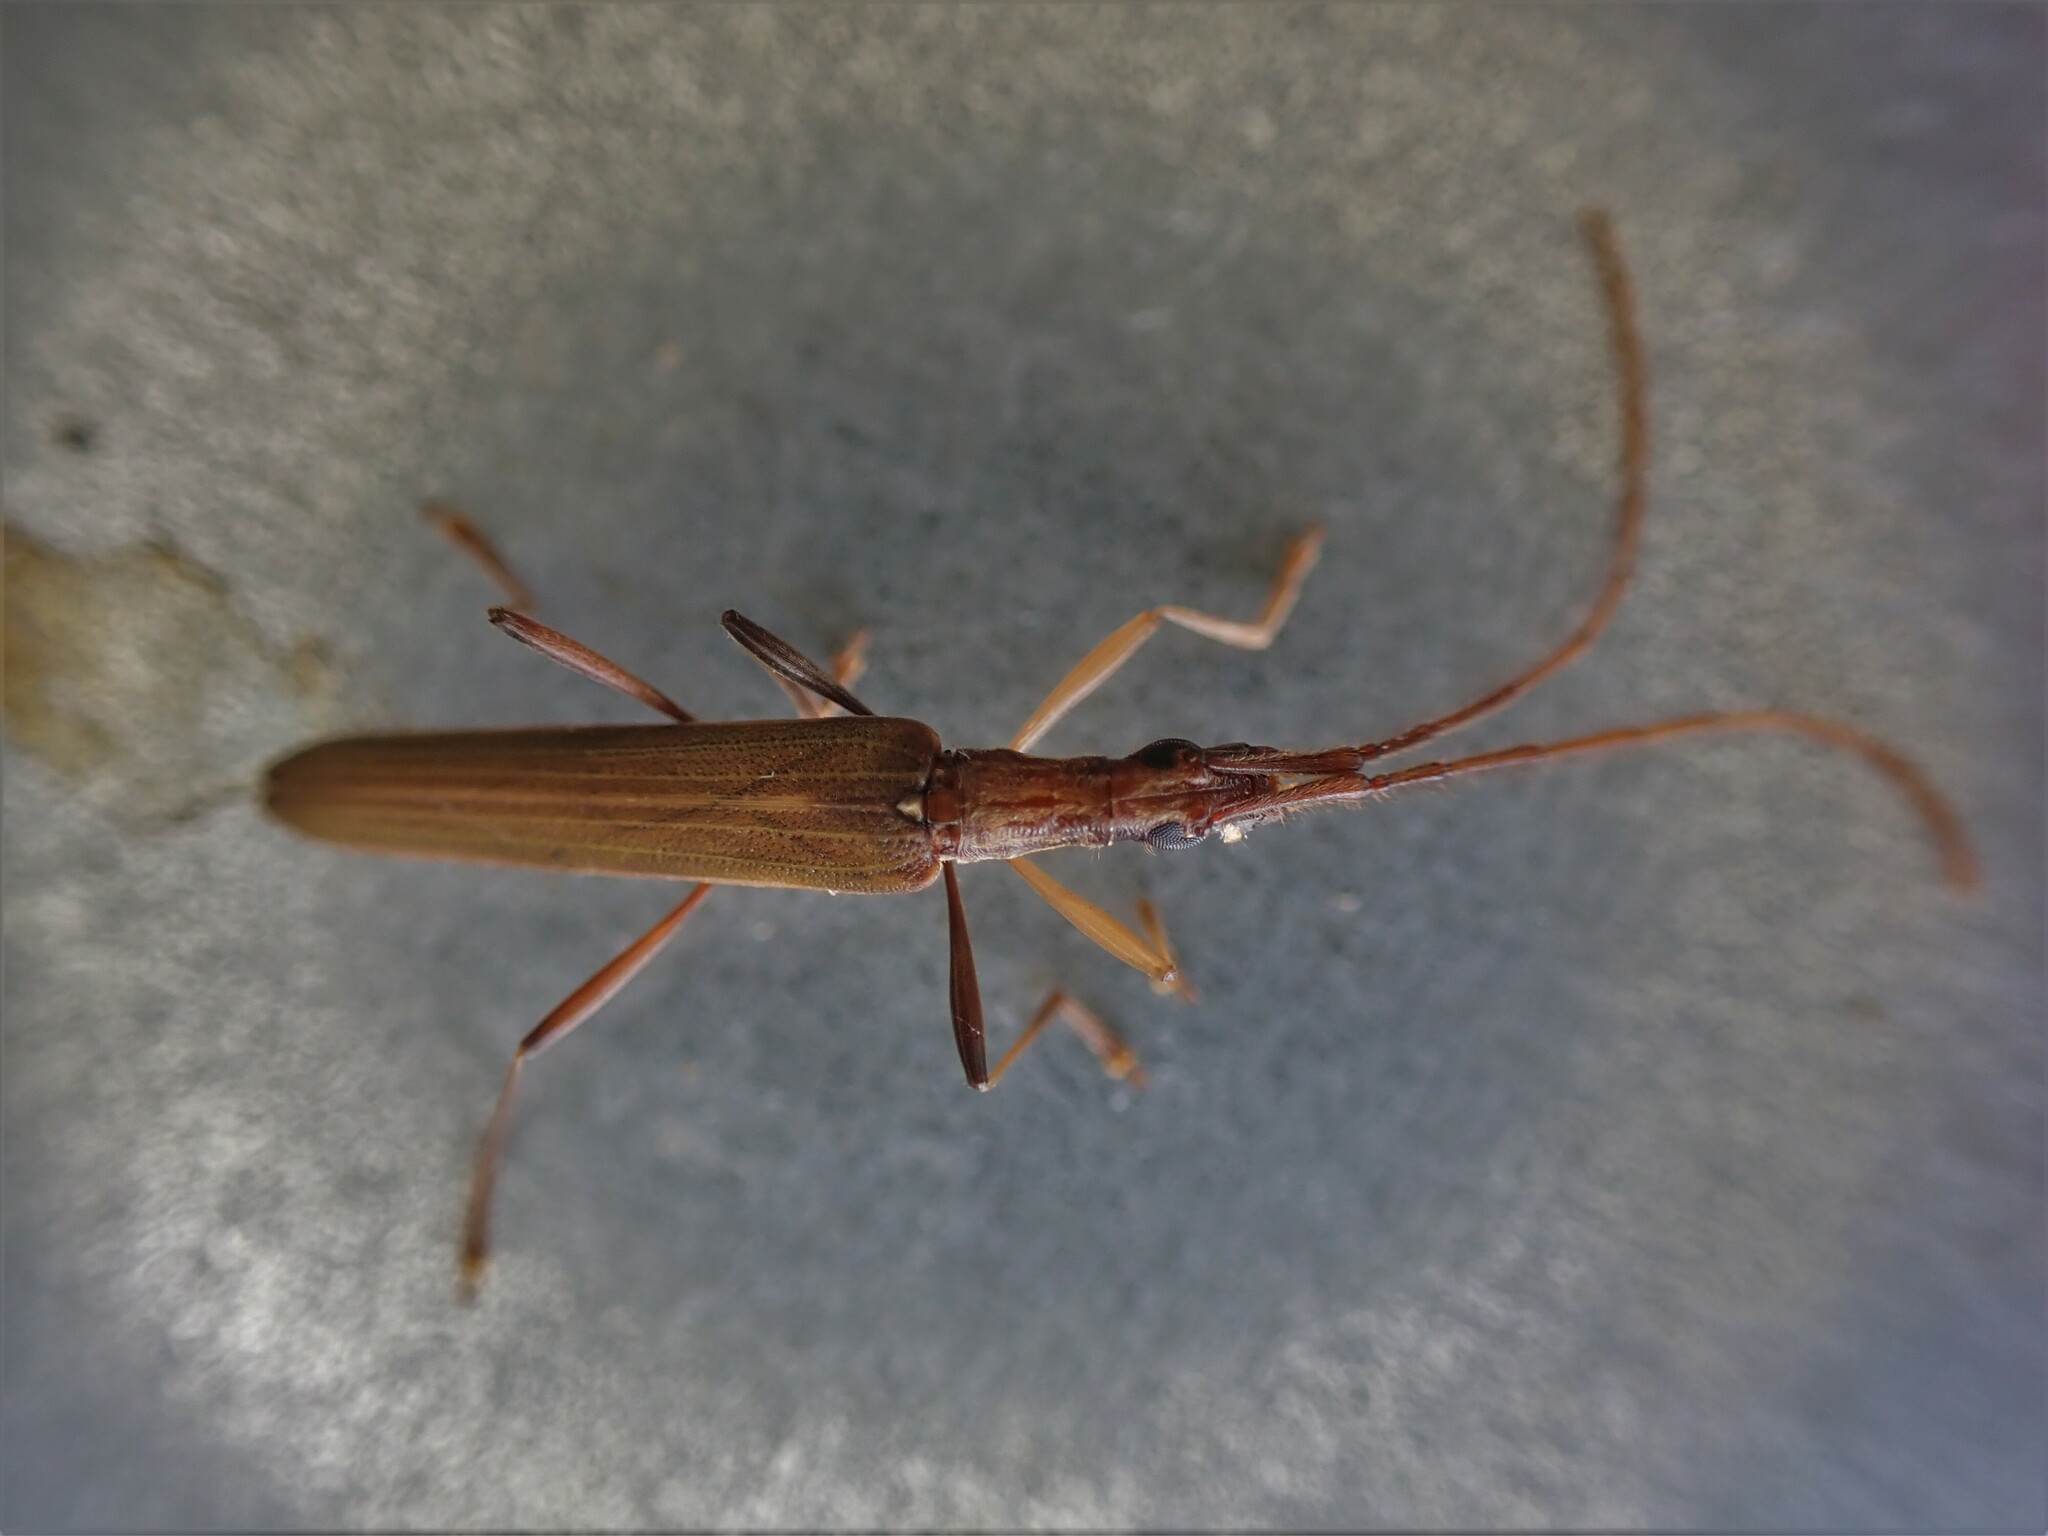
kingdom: Animalia
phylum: Arthropoda
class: Insecta
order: Coleoptera
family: Cerambycidae
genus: Stenopotes
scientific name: Stenopotes pallidus
